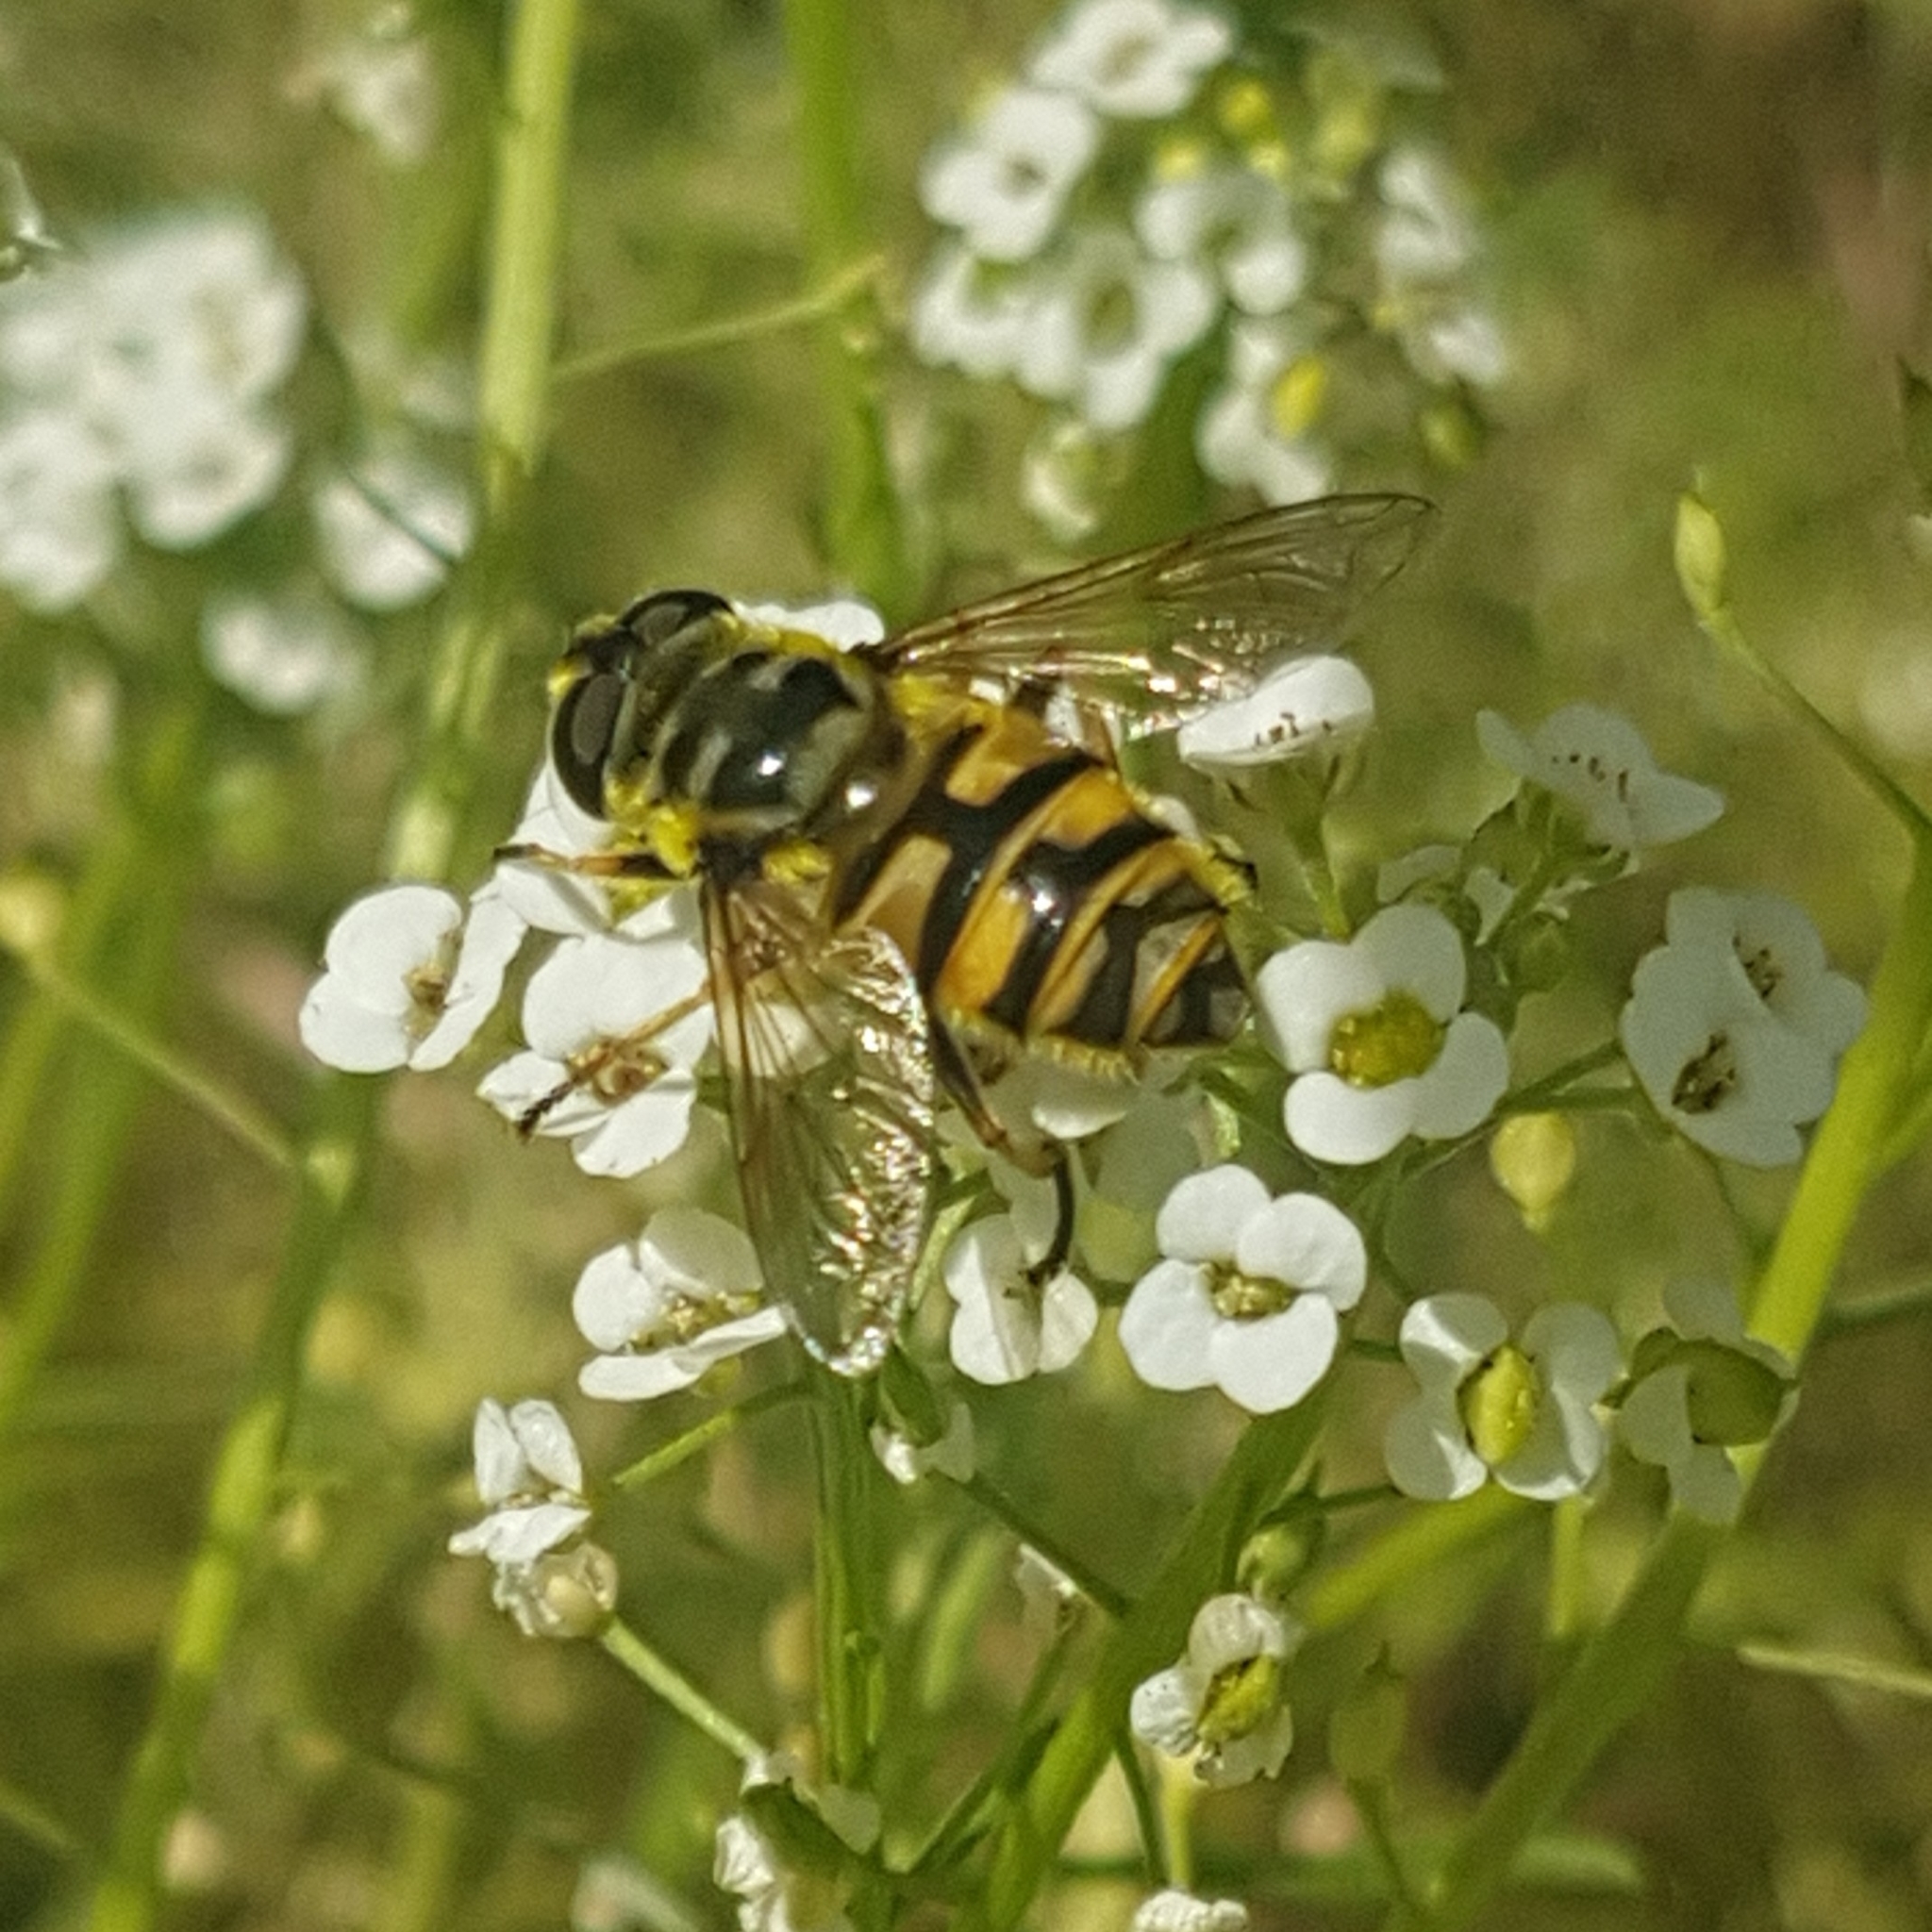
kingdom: Animalia
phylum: Arthropoda
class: Insecta
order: Diptera
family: Syrphidae
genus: Myathropa
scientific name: Myathropa florea
